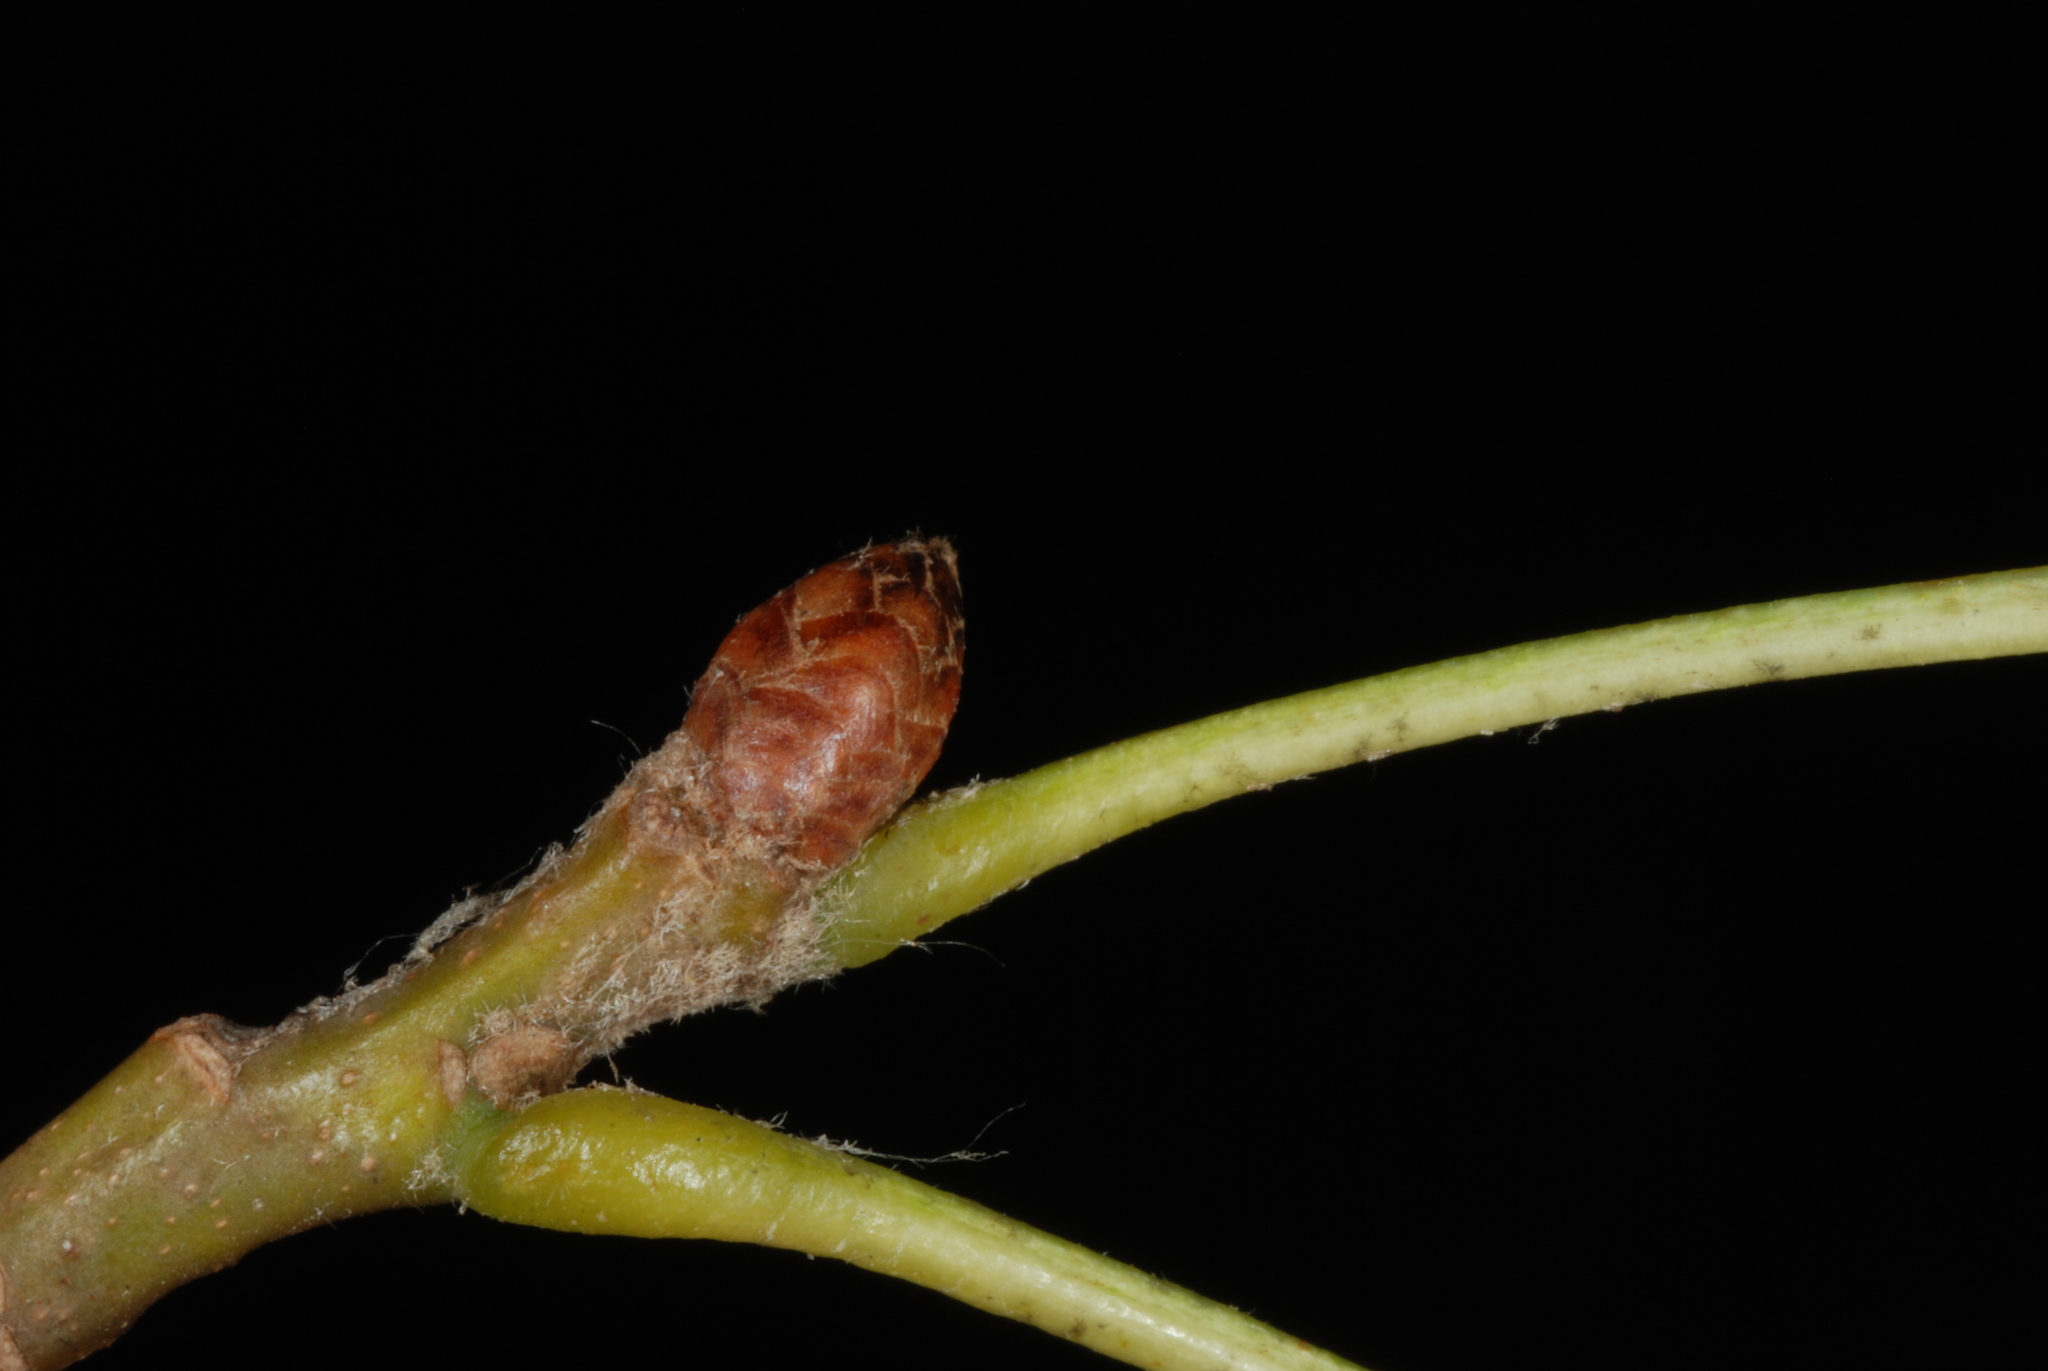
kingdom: Plantae
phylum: Tracheophyta
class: Magnoliopsida
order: Fagales
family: Fagaceae
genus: Quercus
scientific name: Quercus runcinata
